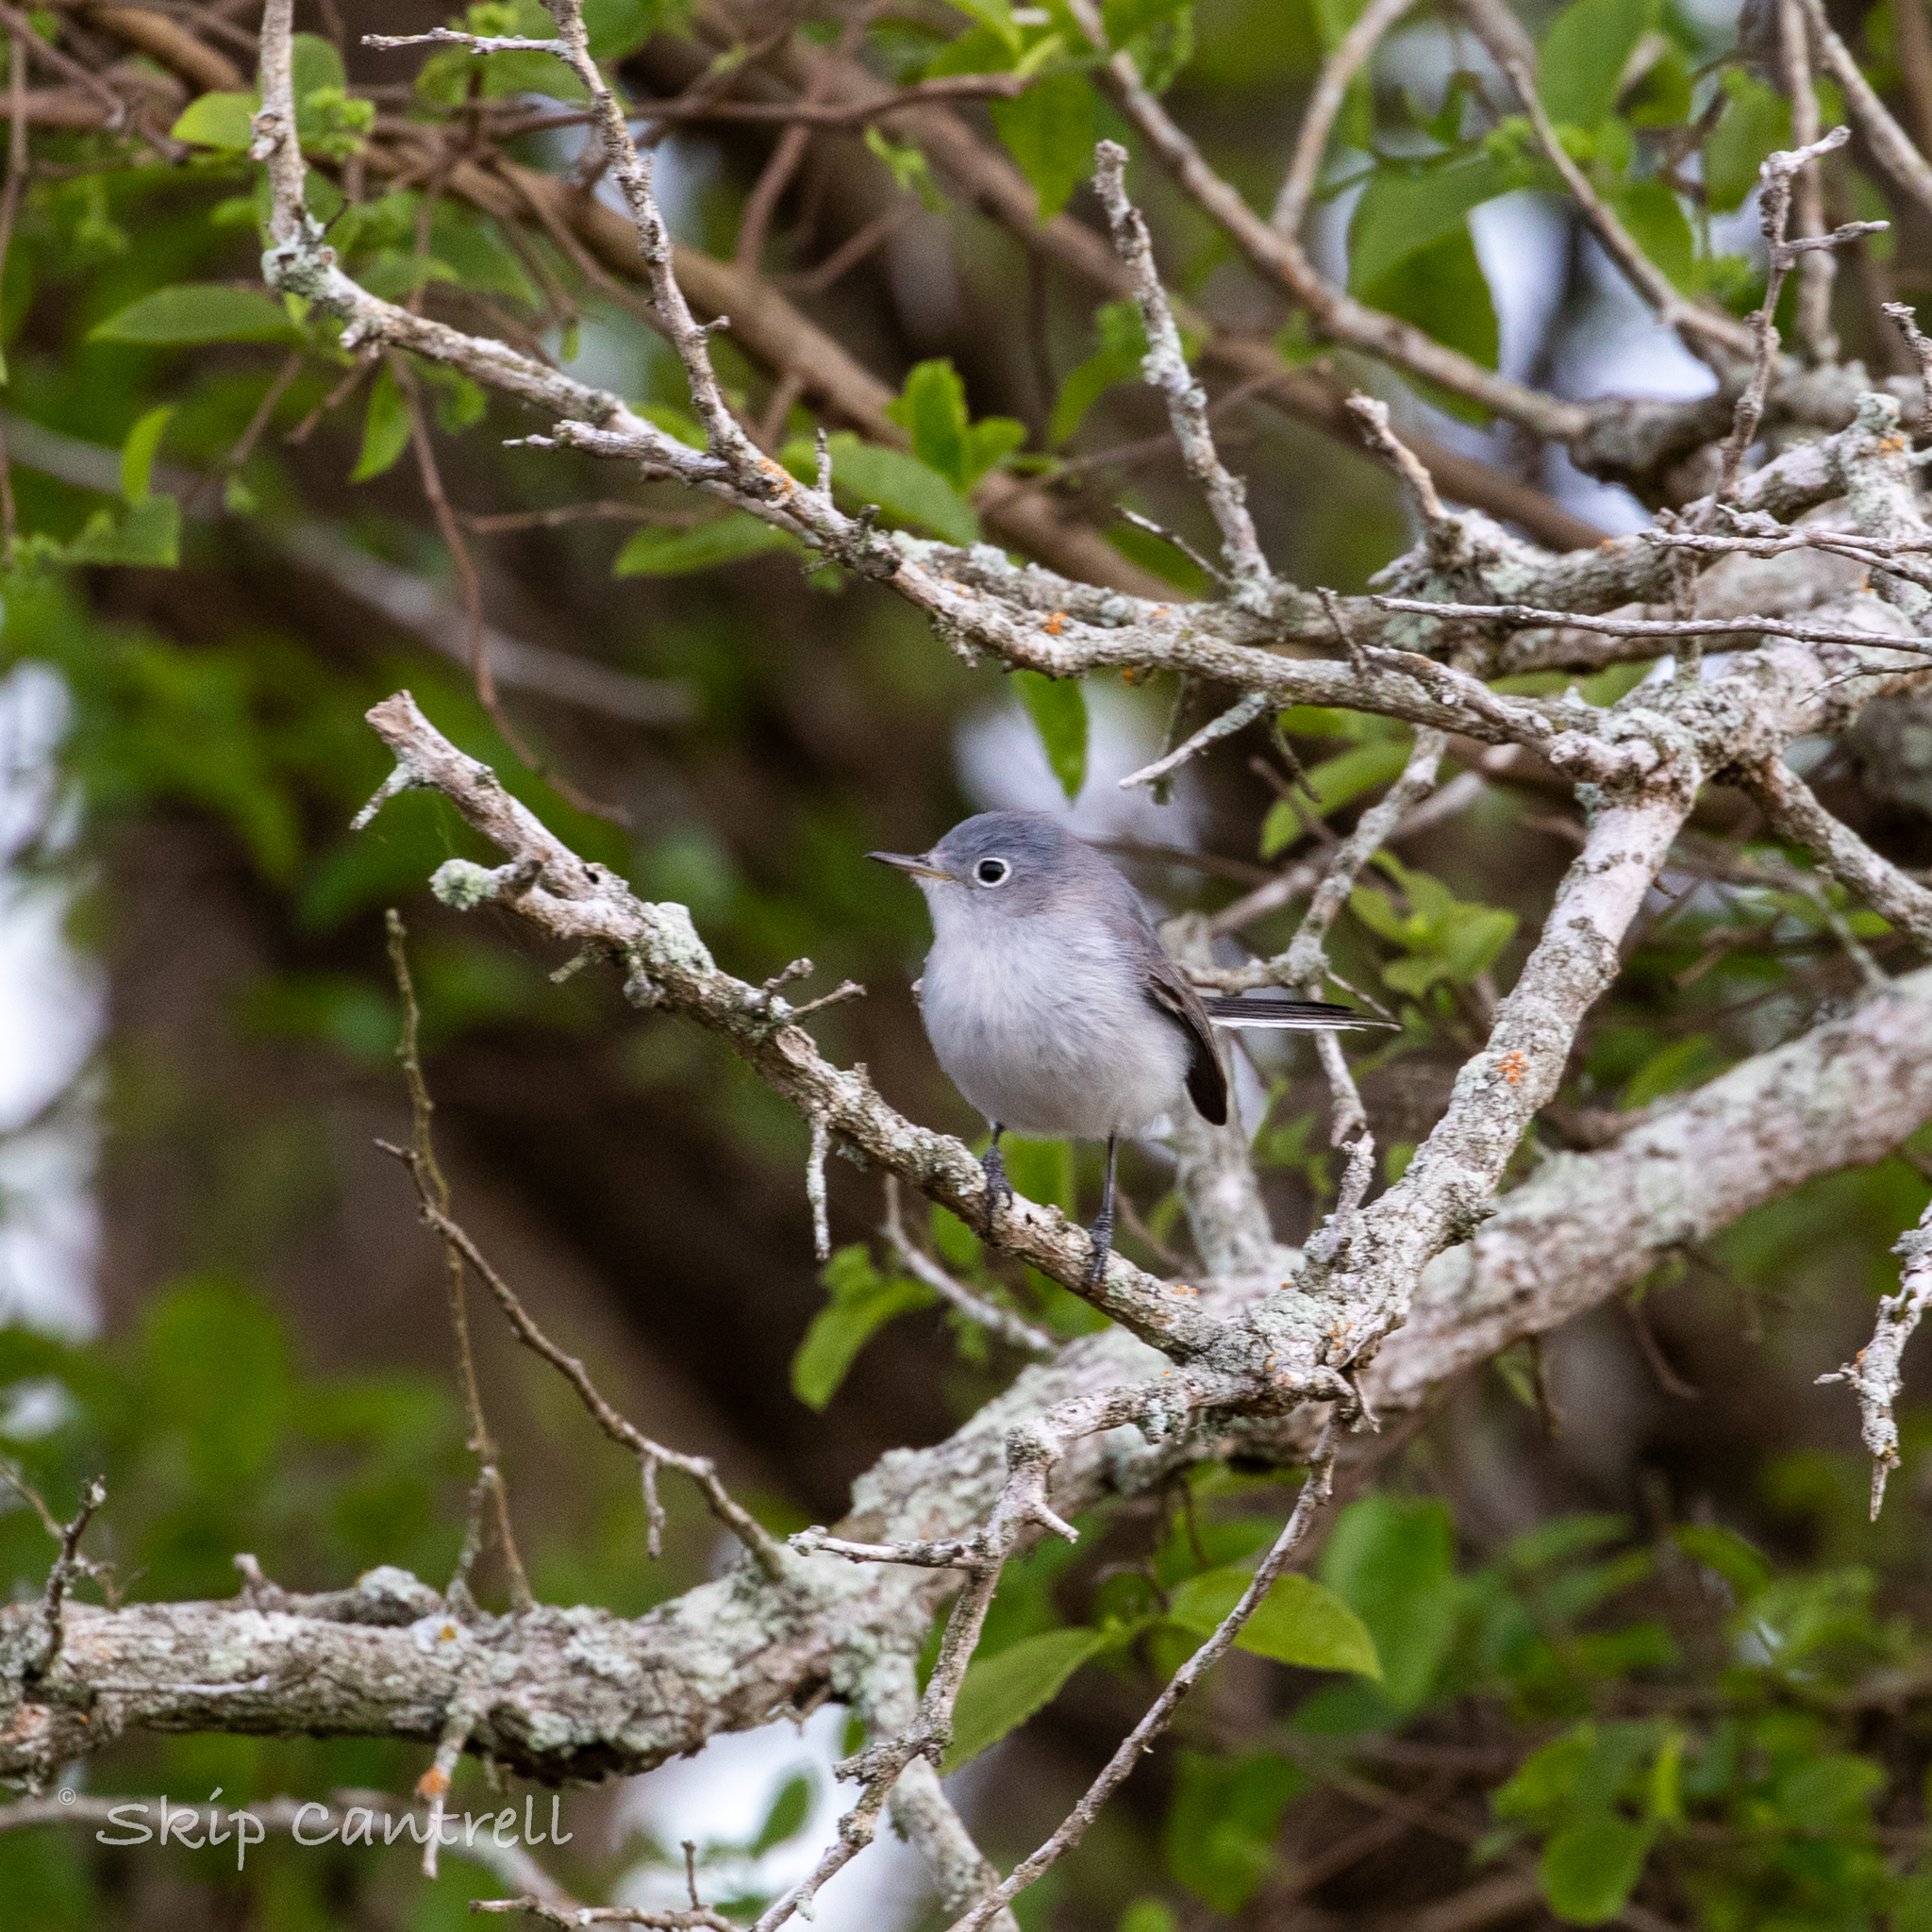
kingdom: Animalia
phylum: Chordata
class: Aves
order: Passeriformes
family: Polioptilidae
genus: Polioptila
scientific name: Polioptila caerulea
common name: Blue-gray gnatcatcher
